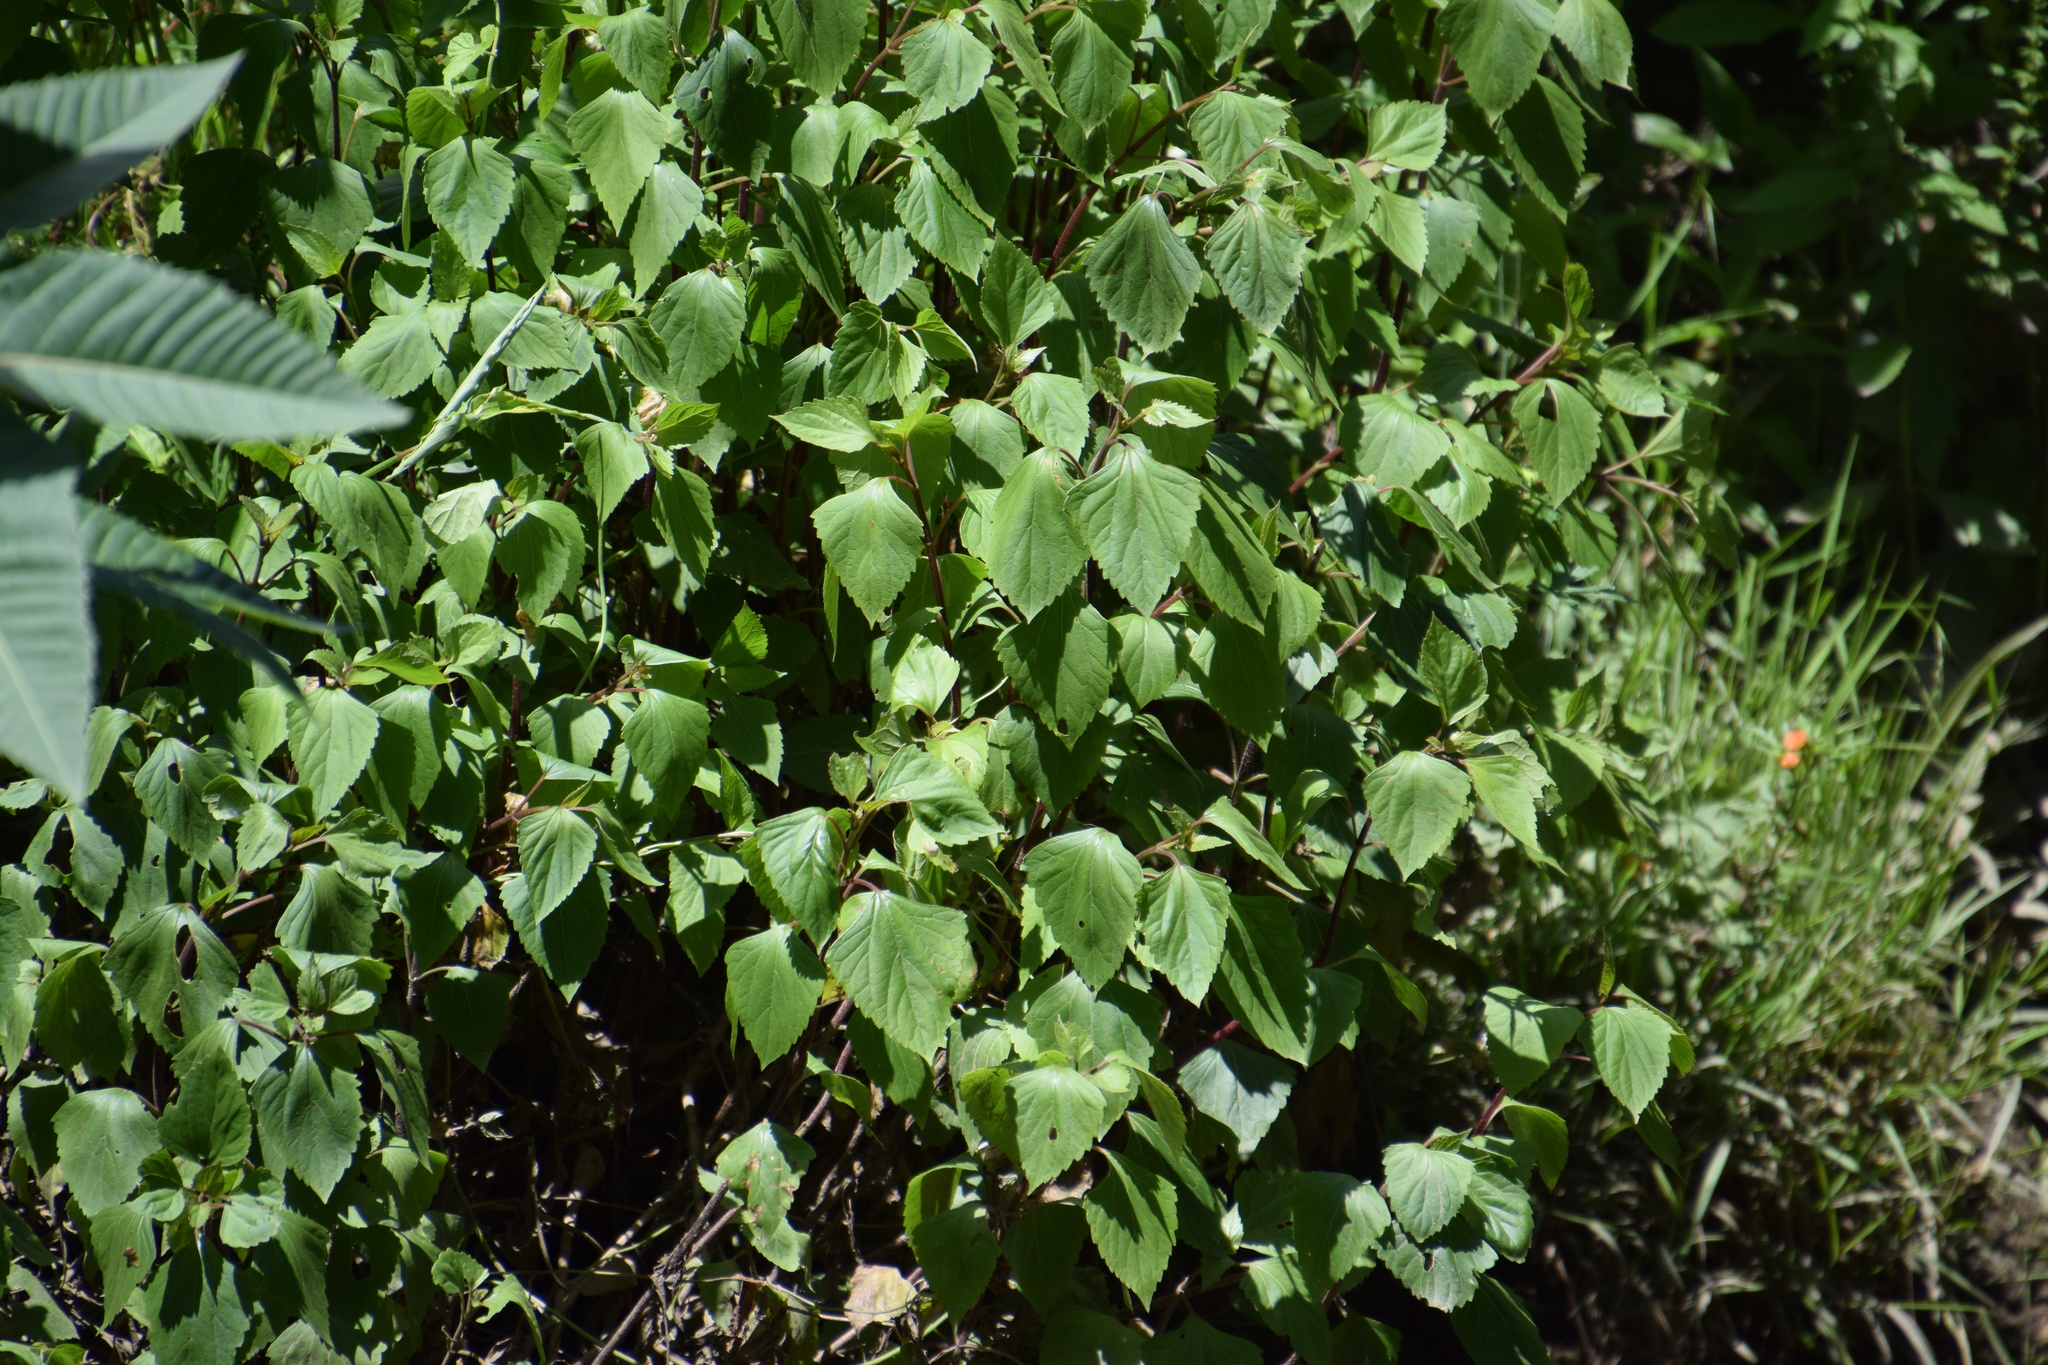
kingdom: Plantae
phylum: Tracheophyta
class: Magnoliopsida
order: Asterales
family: Asteraceae
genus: Ageratina
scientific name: Ageratina adenophora
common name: Sticky snakeroot
